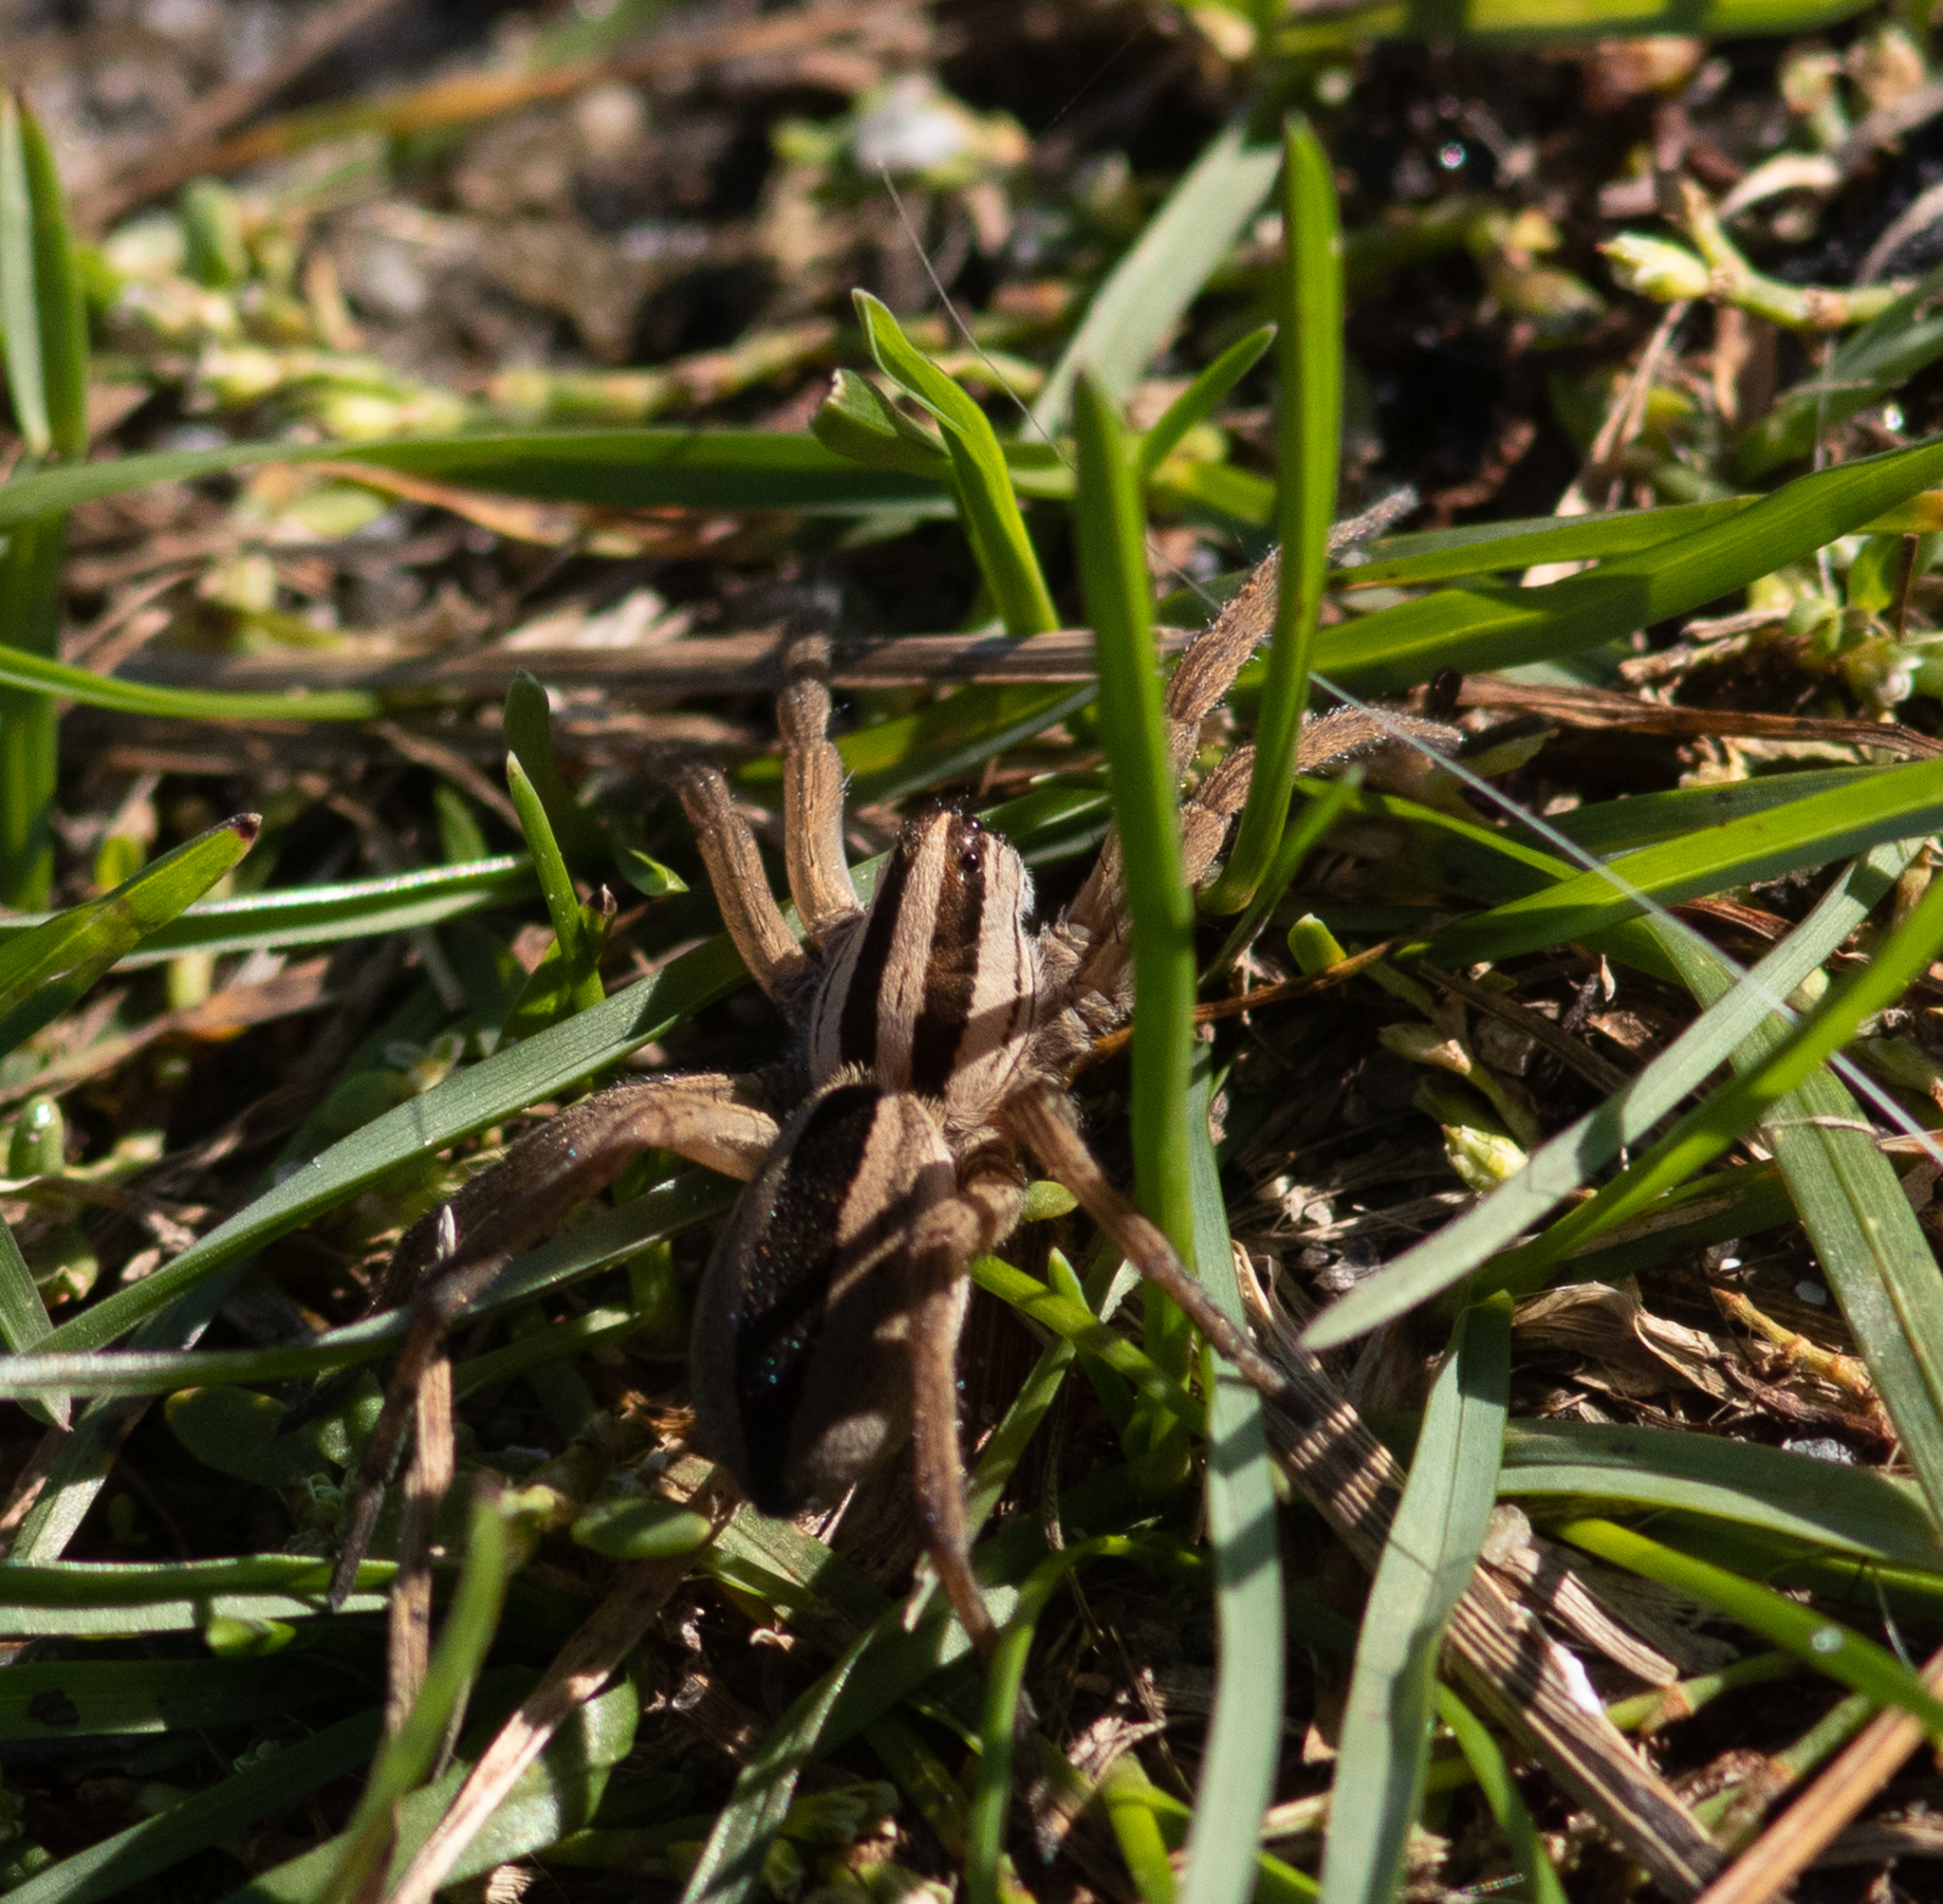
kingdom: Animalia
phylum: Arthropoda
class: Arachnida
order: Araneae
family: Lycosidae
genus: Rabidosa
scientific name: Rabidosa punctulata
